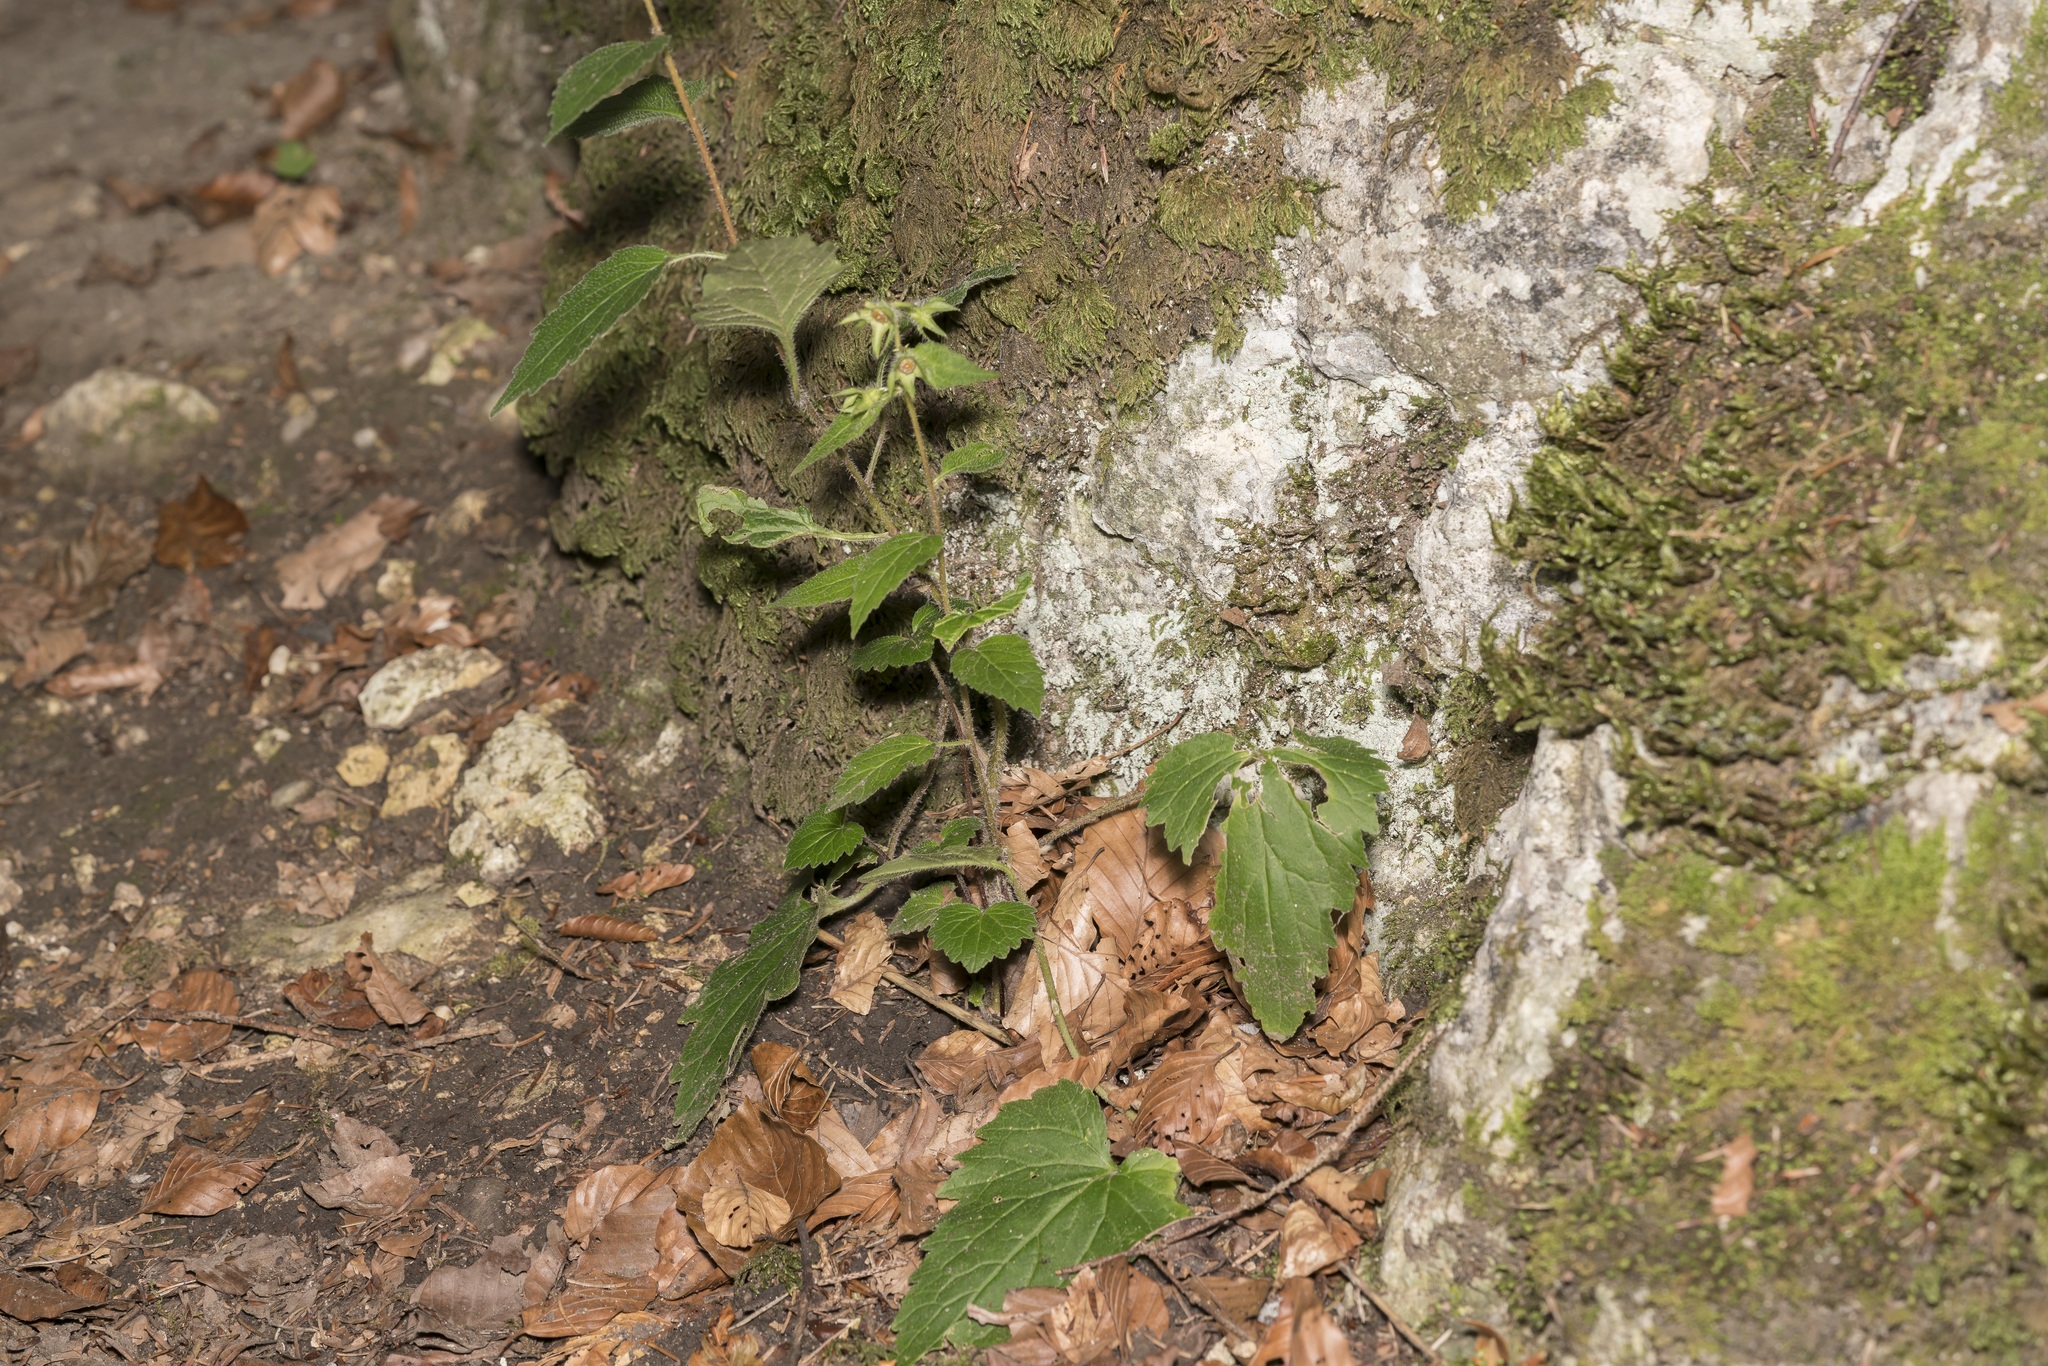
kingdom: Plantae
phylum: Tracheophyta
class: Magnoliopsida
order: Asterales
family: Campanulaceae
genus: Campanula
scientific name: Campanula trachelium
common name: Nettle-leaved bellflower
